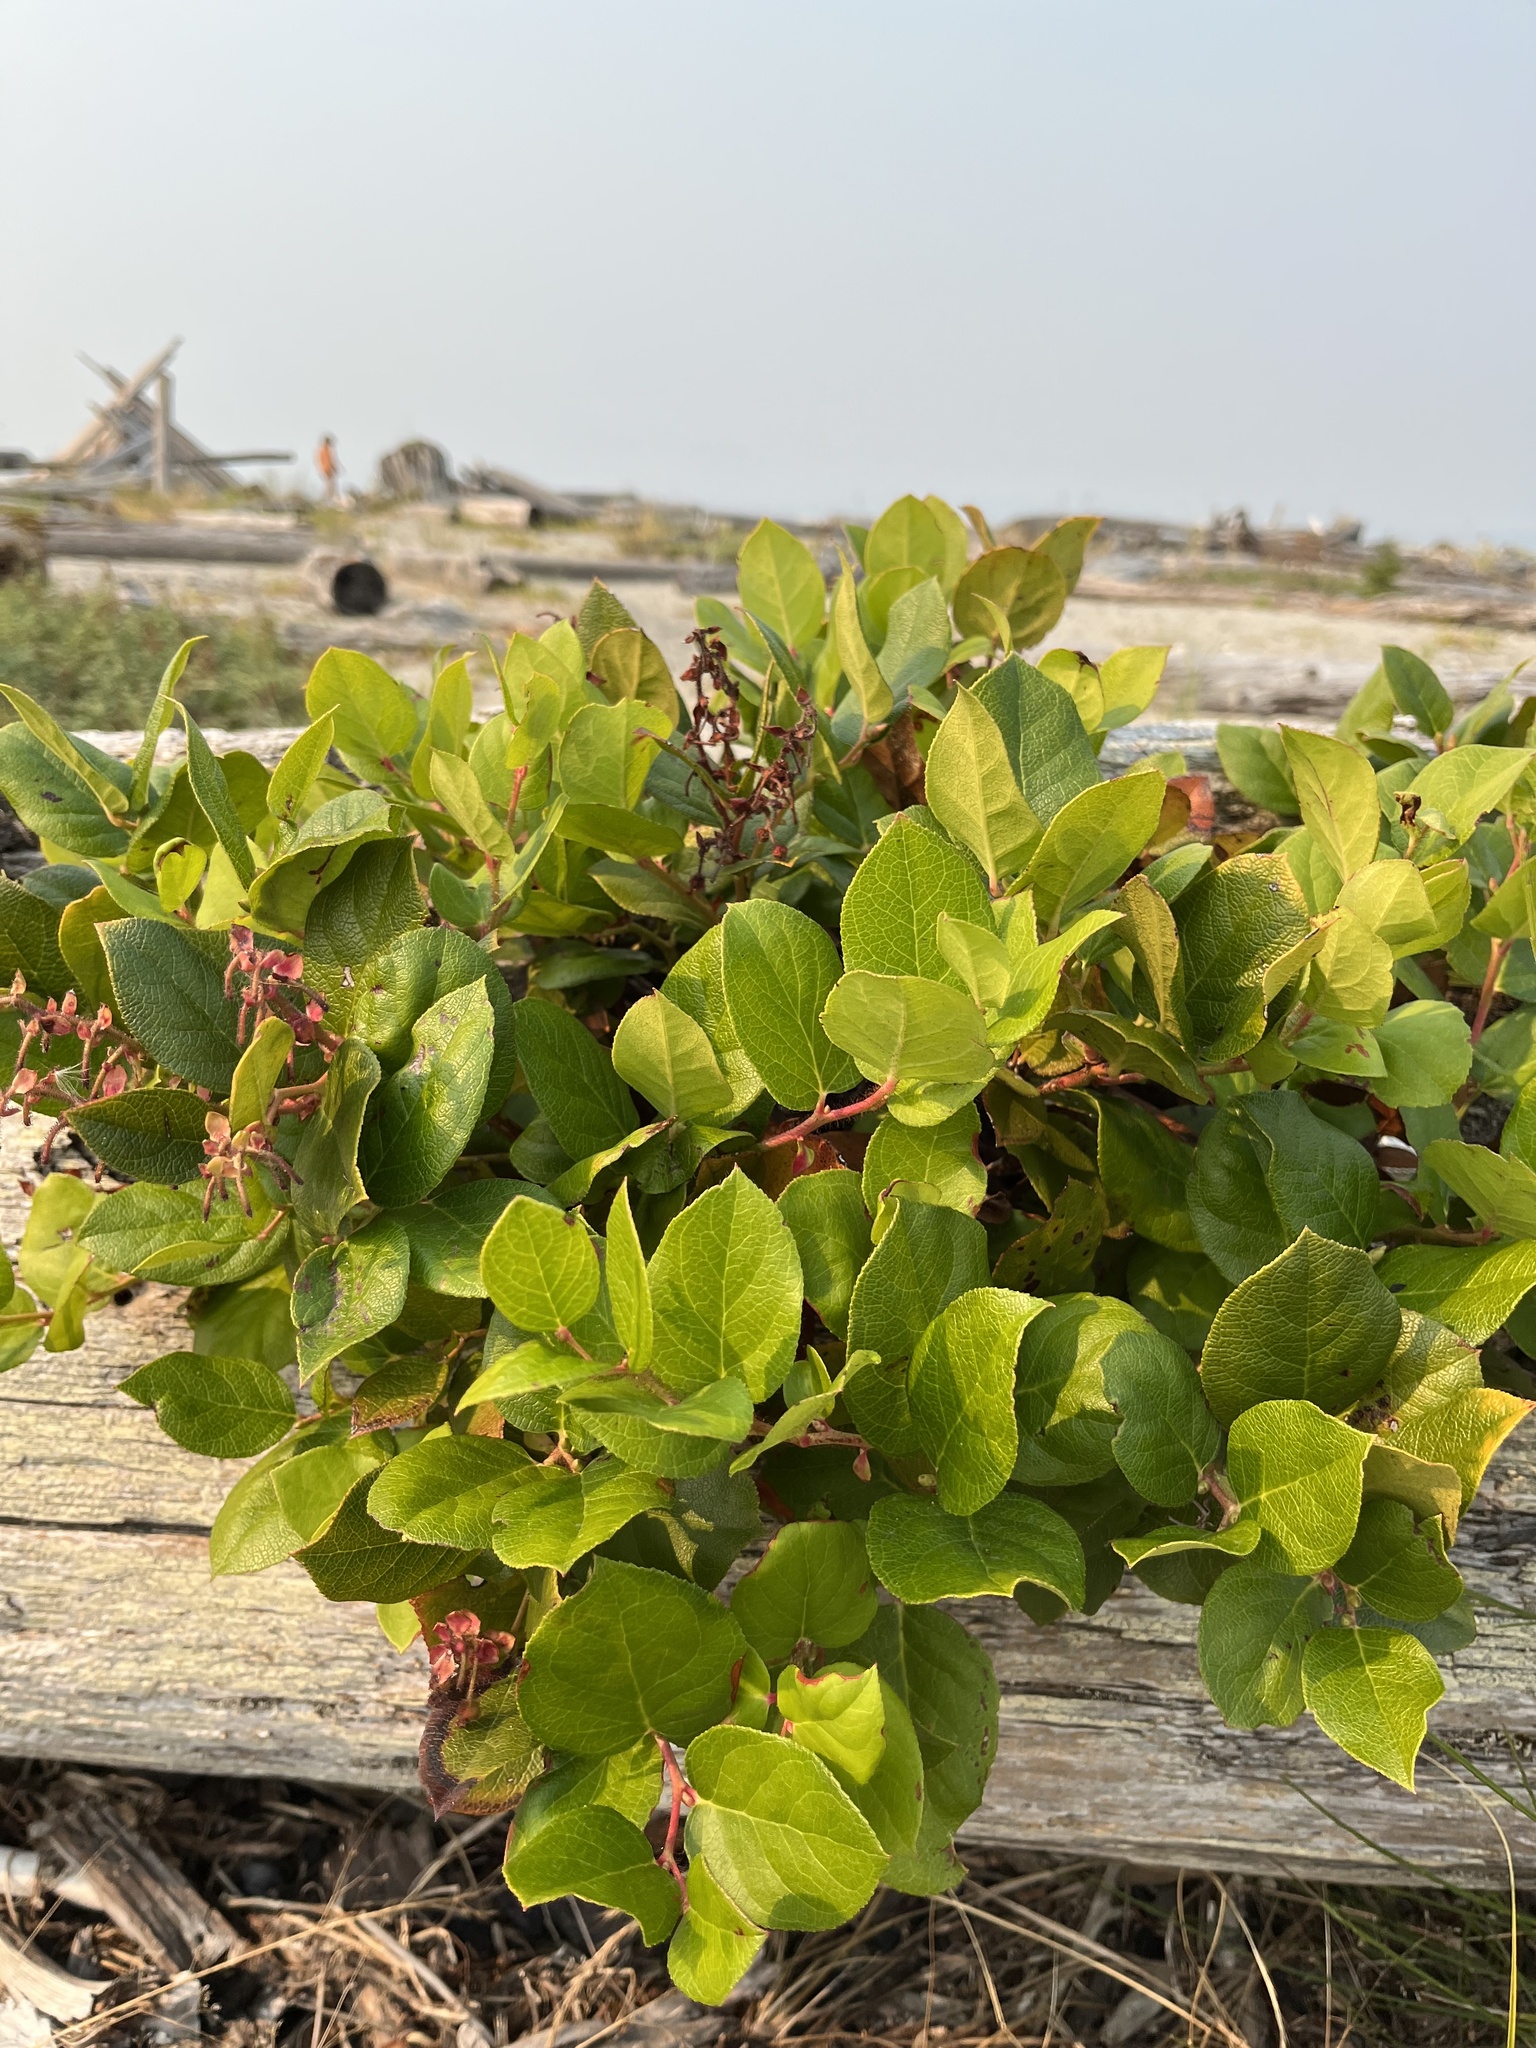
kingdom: Plantae
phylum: Tracheophyta
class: Magnoliopsida
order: Ericales
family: Ericaceae
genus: Gaultheria
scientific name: Gaultheria shallon
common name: Shallon
